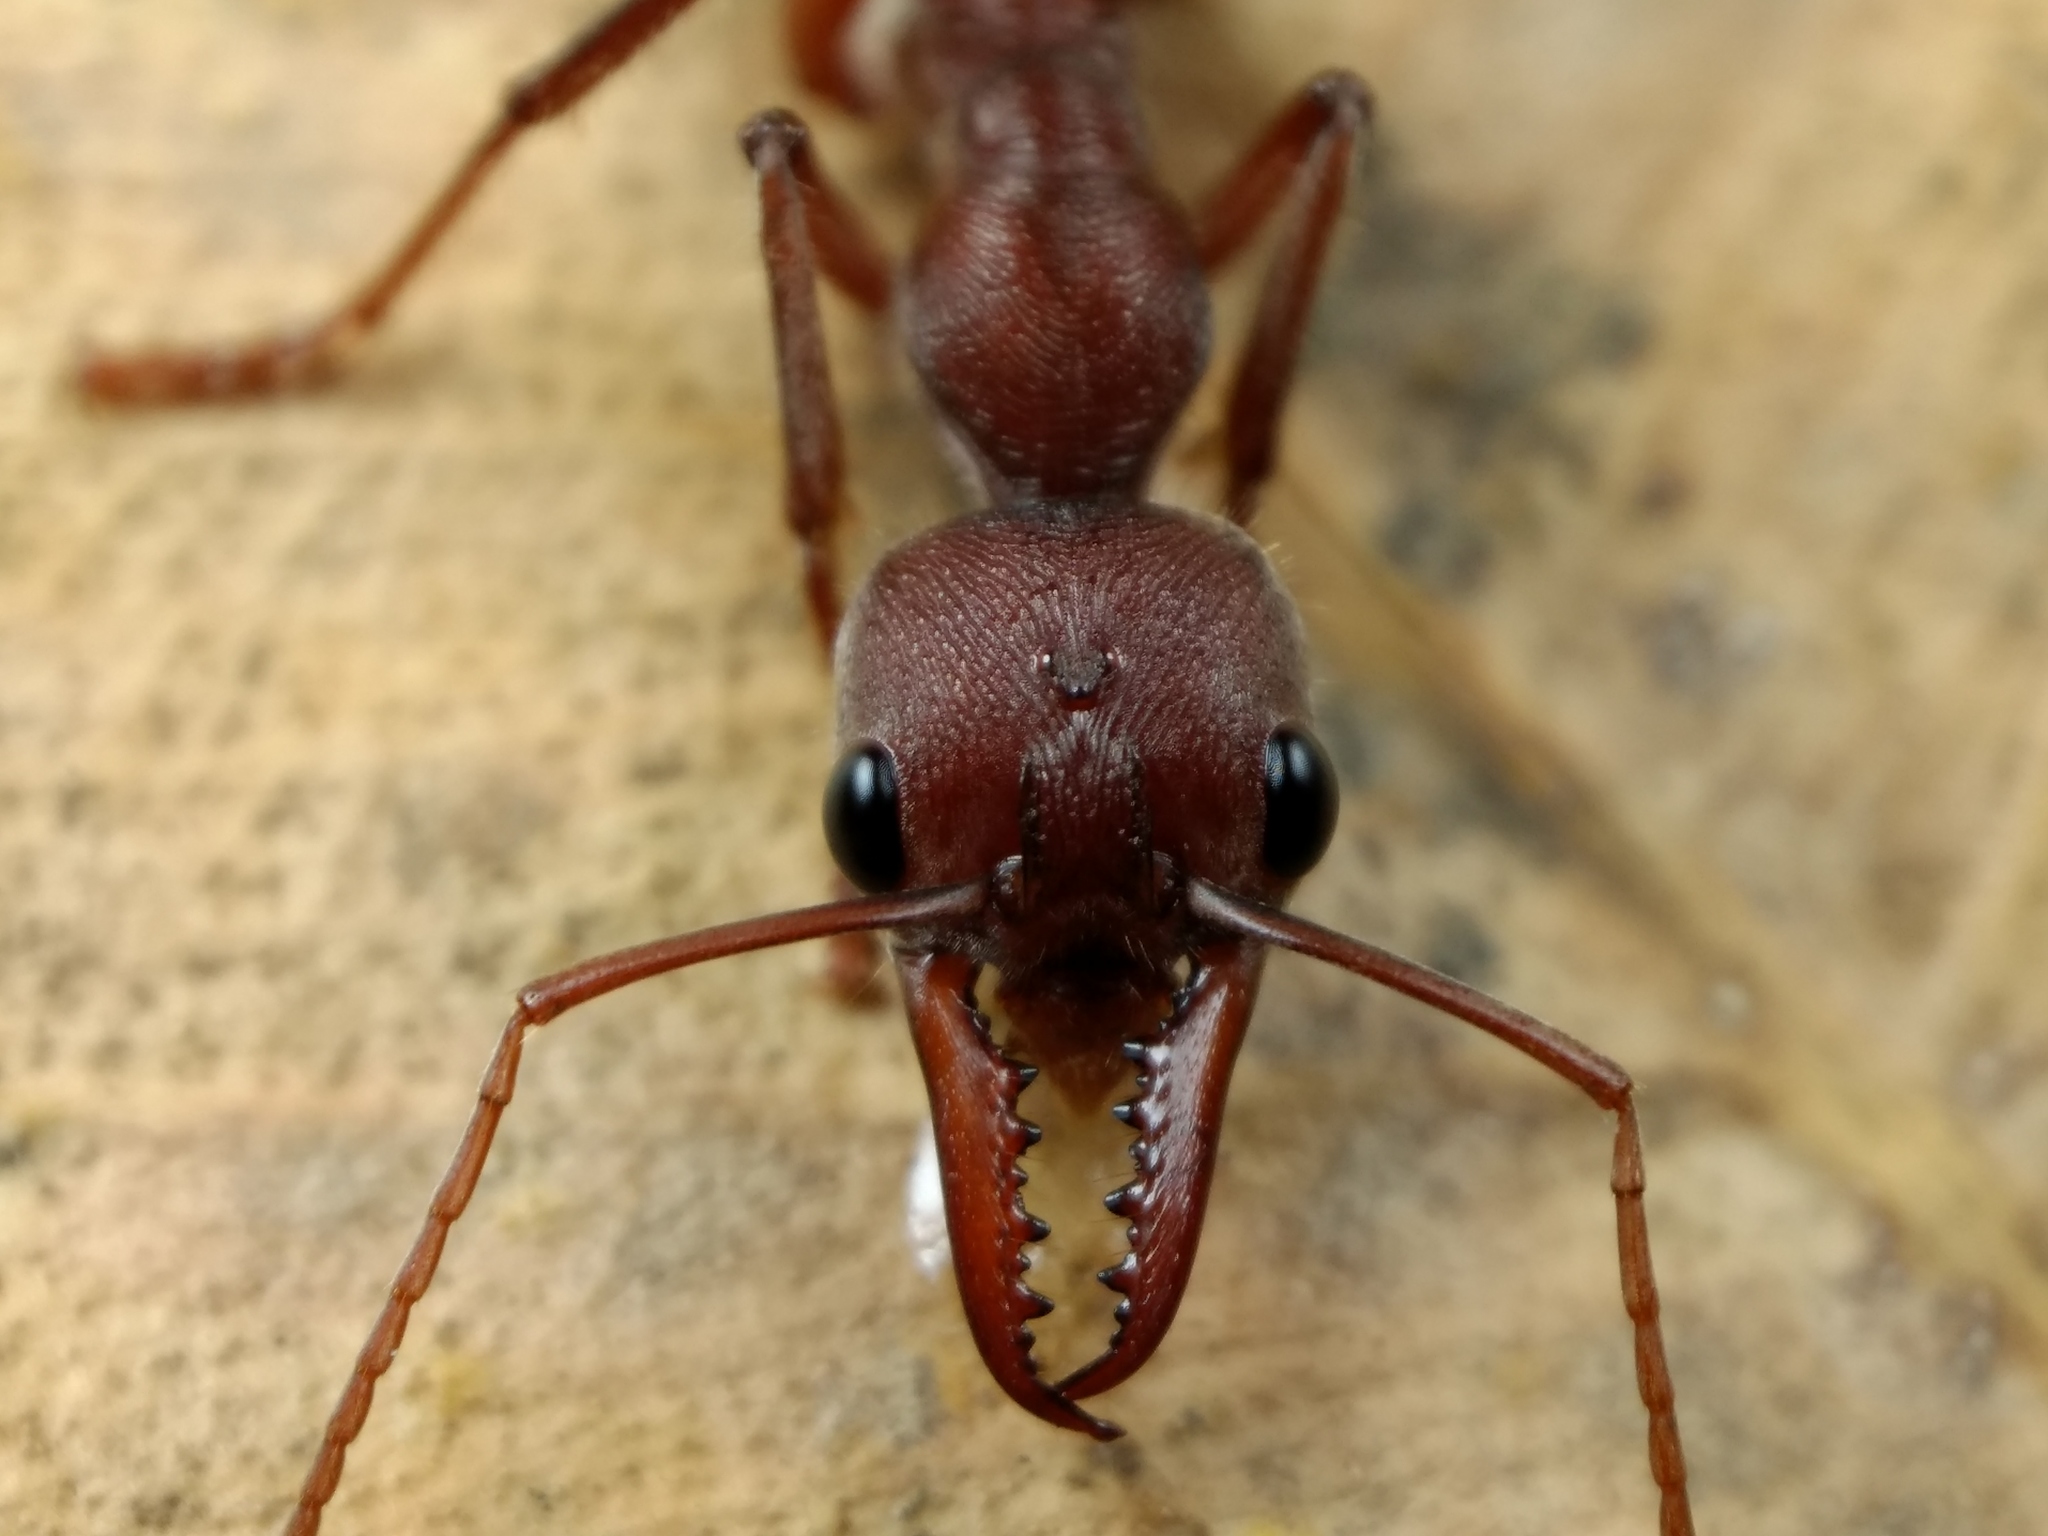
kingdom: Animalia
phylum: Arthropoda
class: Insecta
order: Hymenoptera
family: Formicidae
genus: Myrmecia
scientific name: Myrmecia comata
